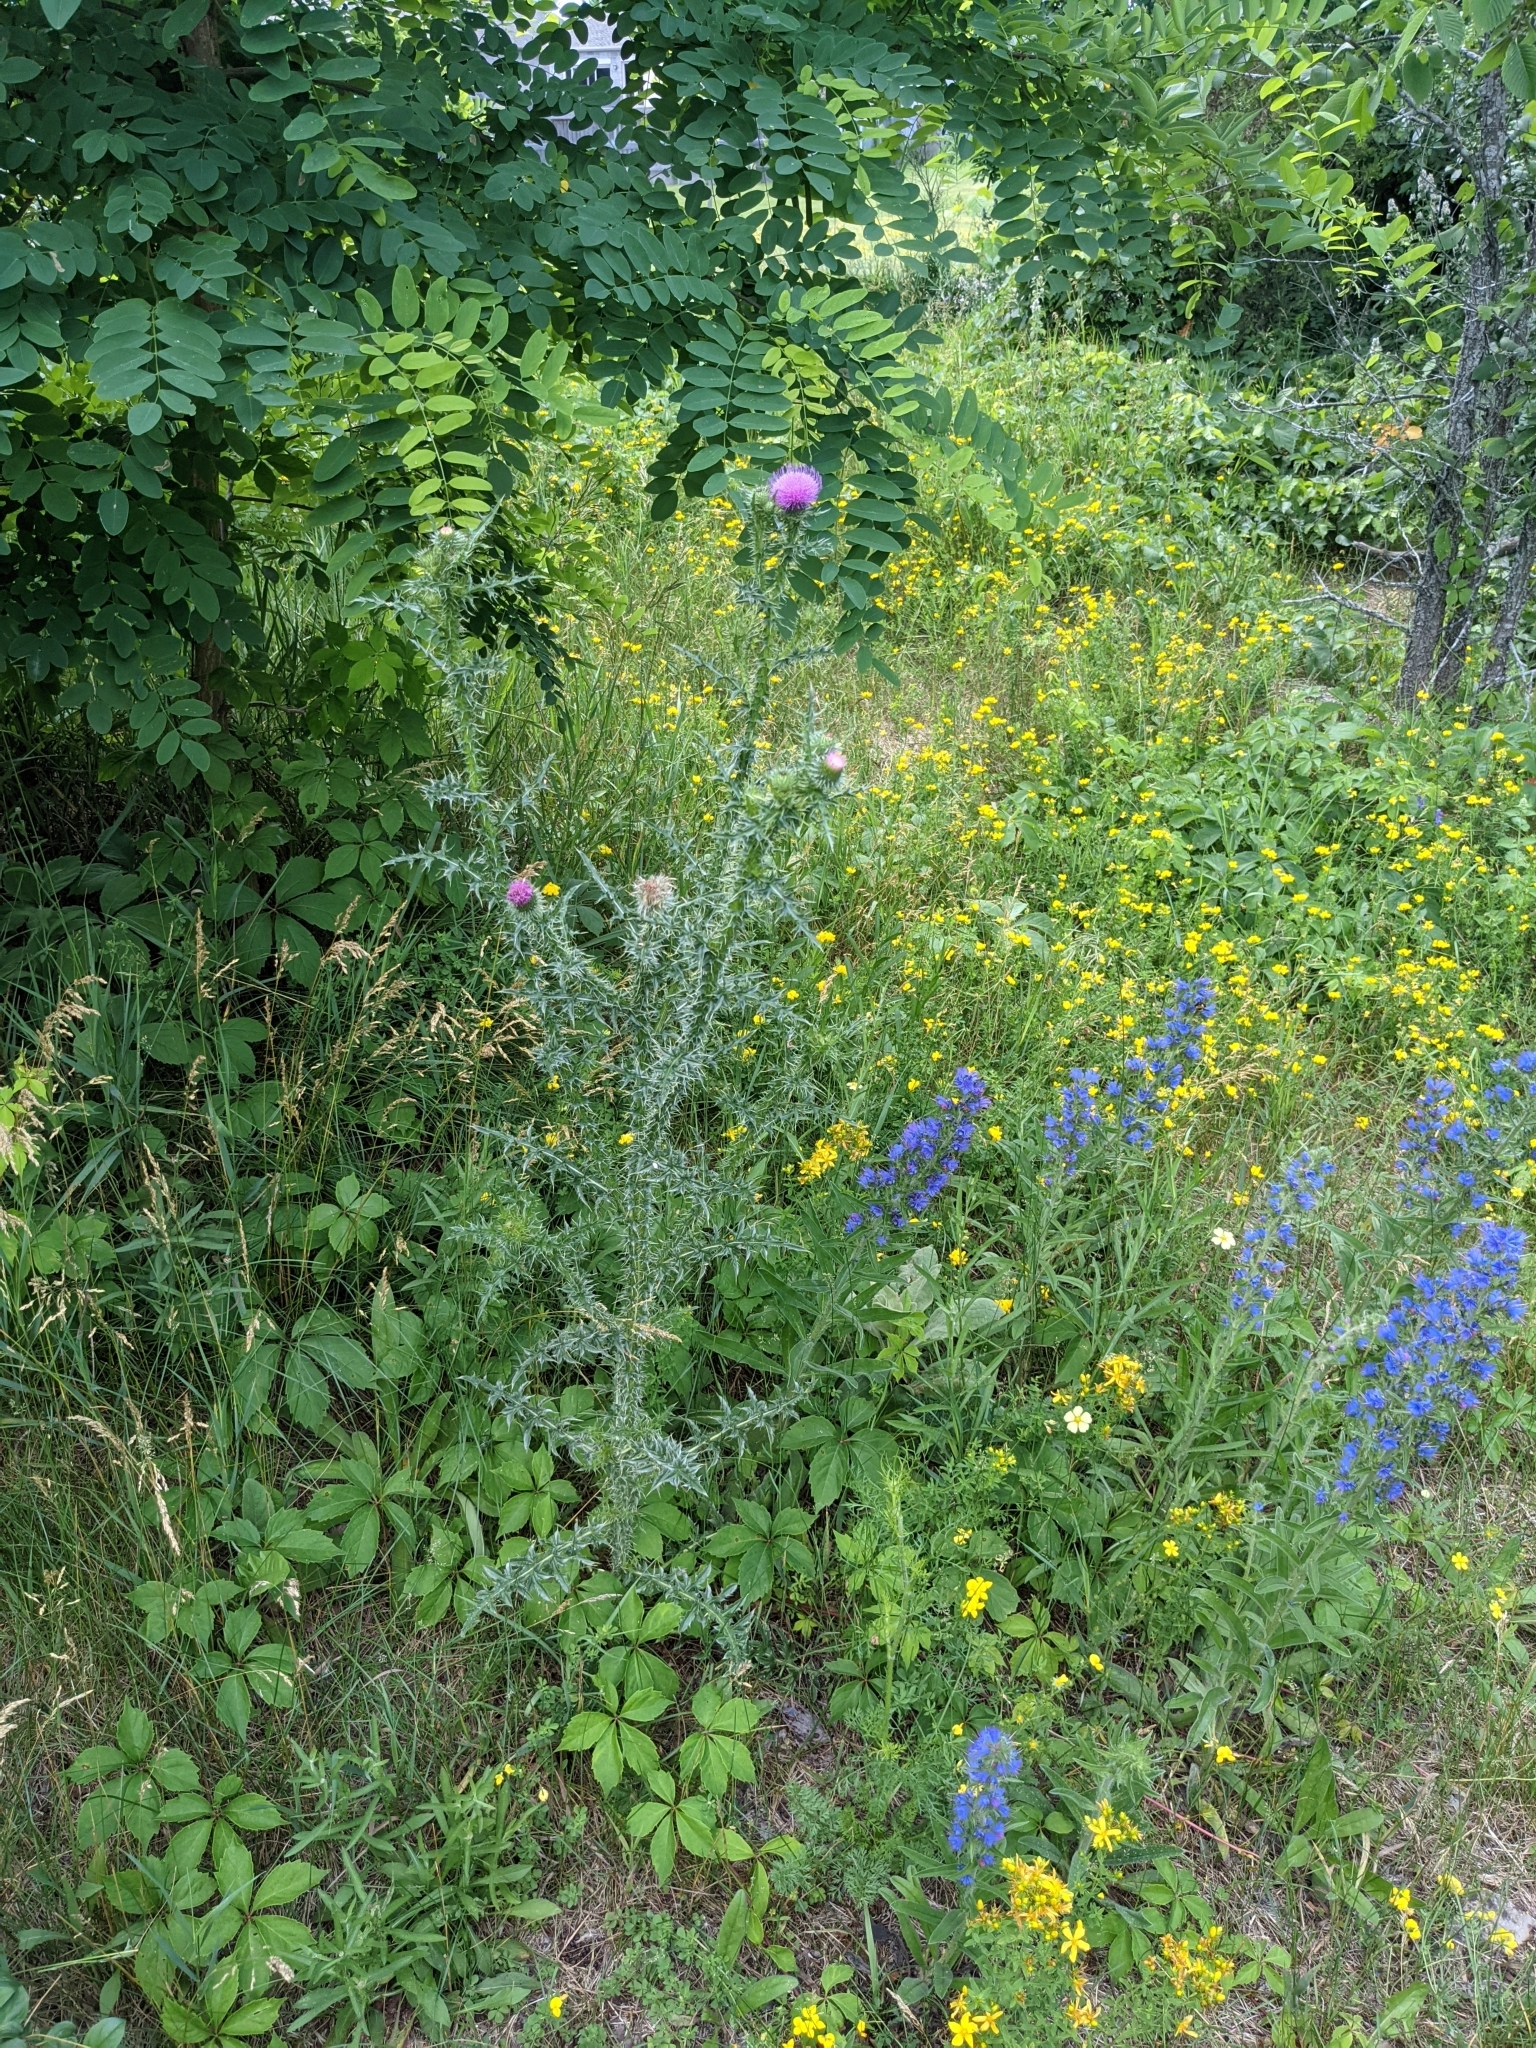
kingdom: Plantae
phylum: Tracheophyta
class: Magnoliopsida
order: Asterales
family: Asteraceae
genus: Carduus
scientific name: Carduus acanthoides
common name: Plumeless thistle
